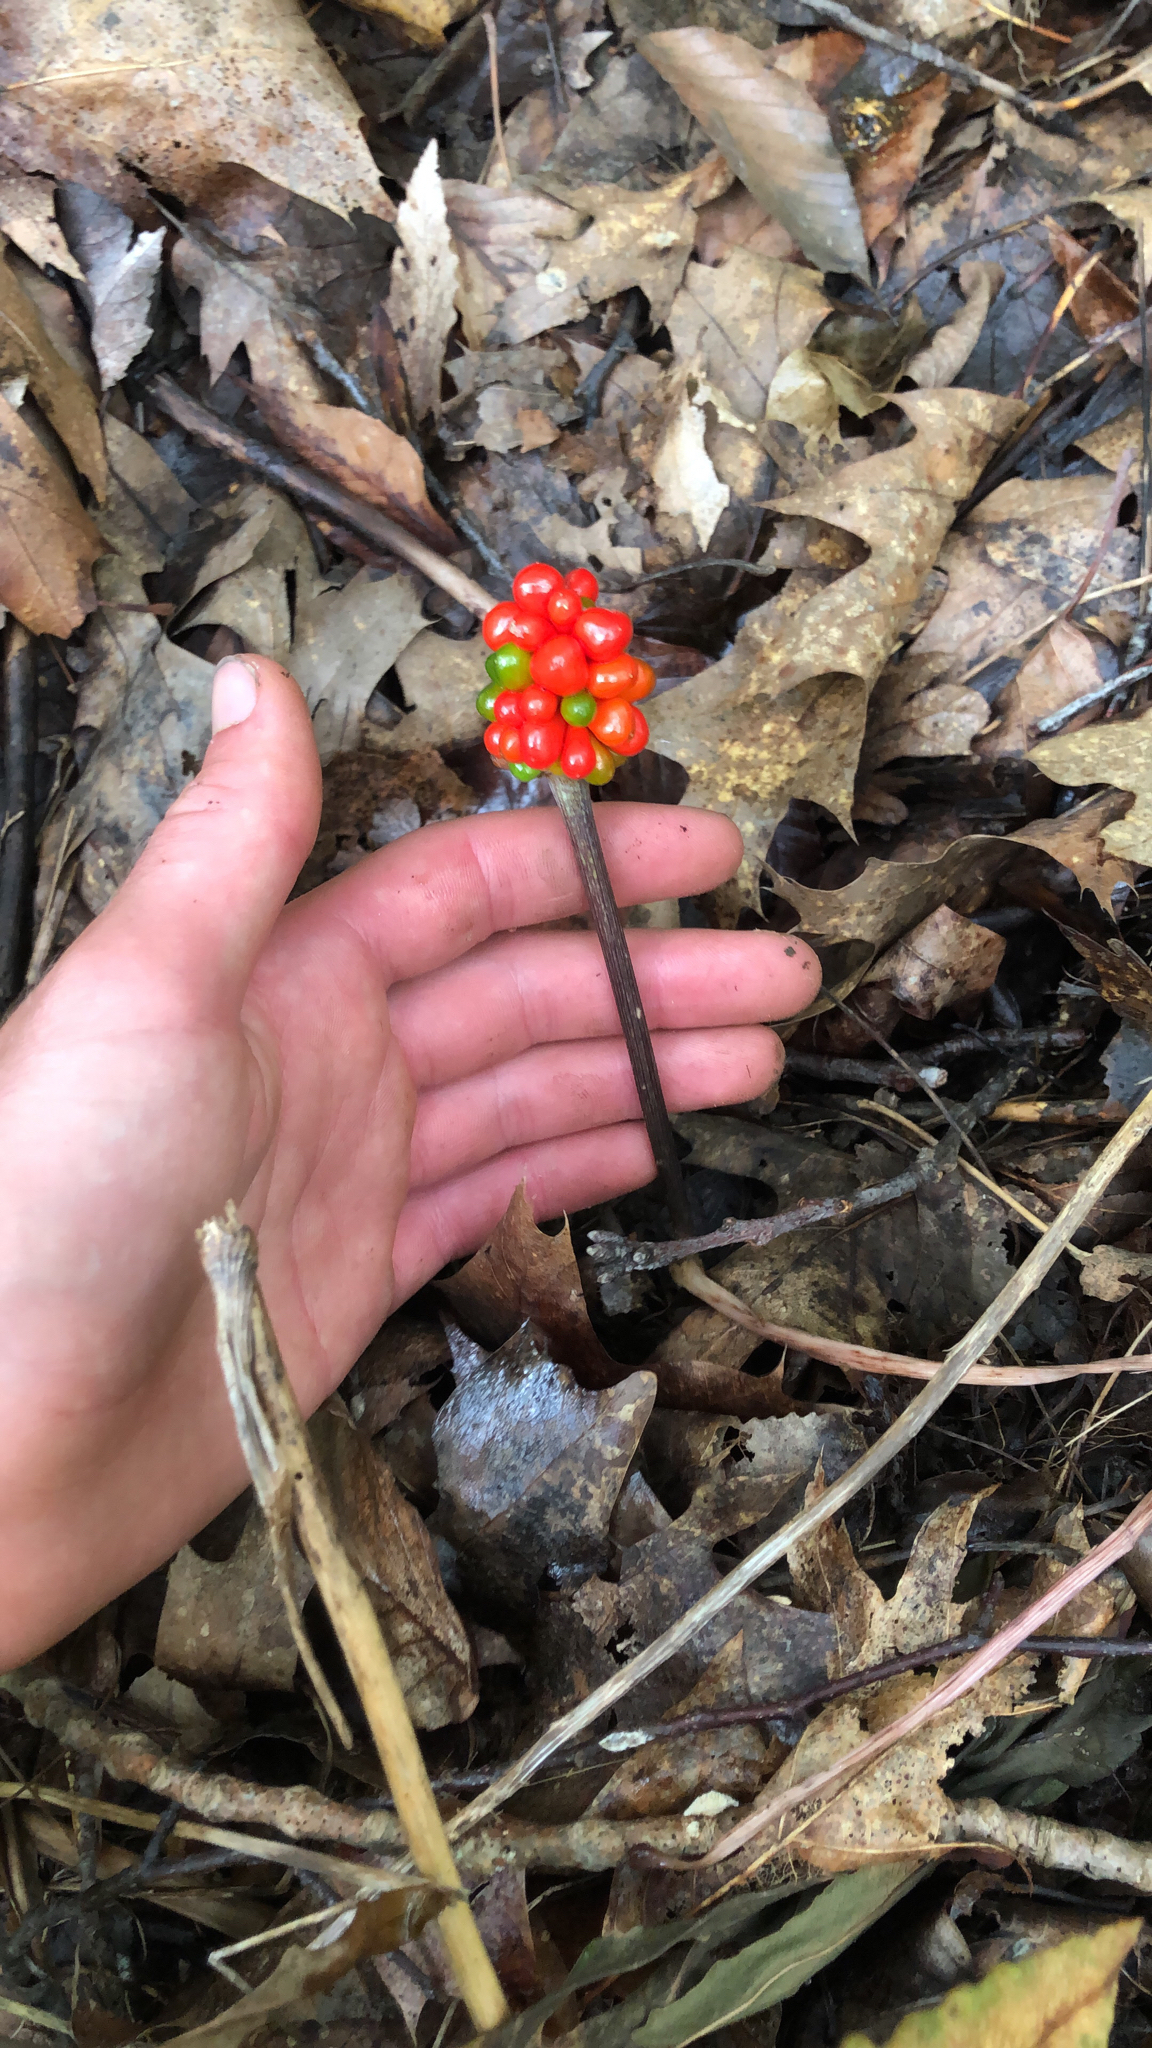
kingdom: Plantae
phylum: Tracheophyta
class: Liliopsida
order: Alismatales
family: Araceae
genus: Arisaema
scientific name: Arisaema triphyllum
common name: Jack-in-the-pulpit
